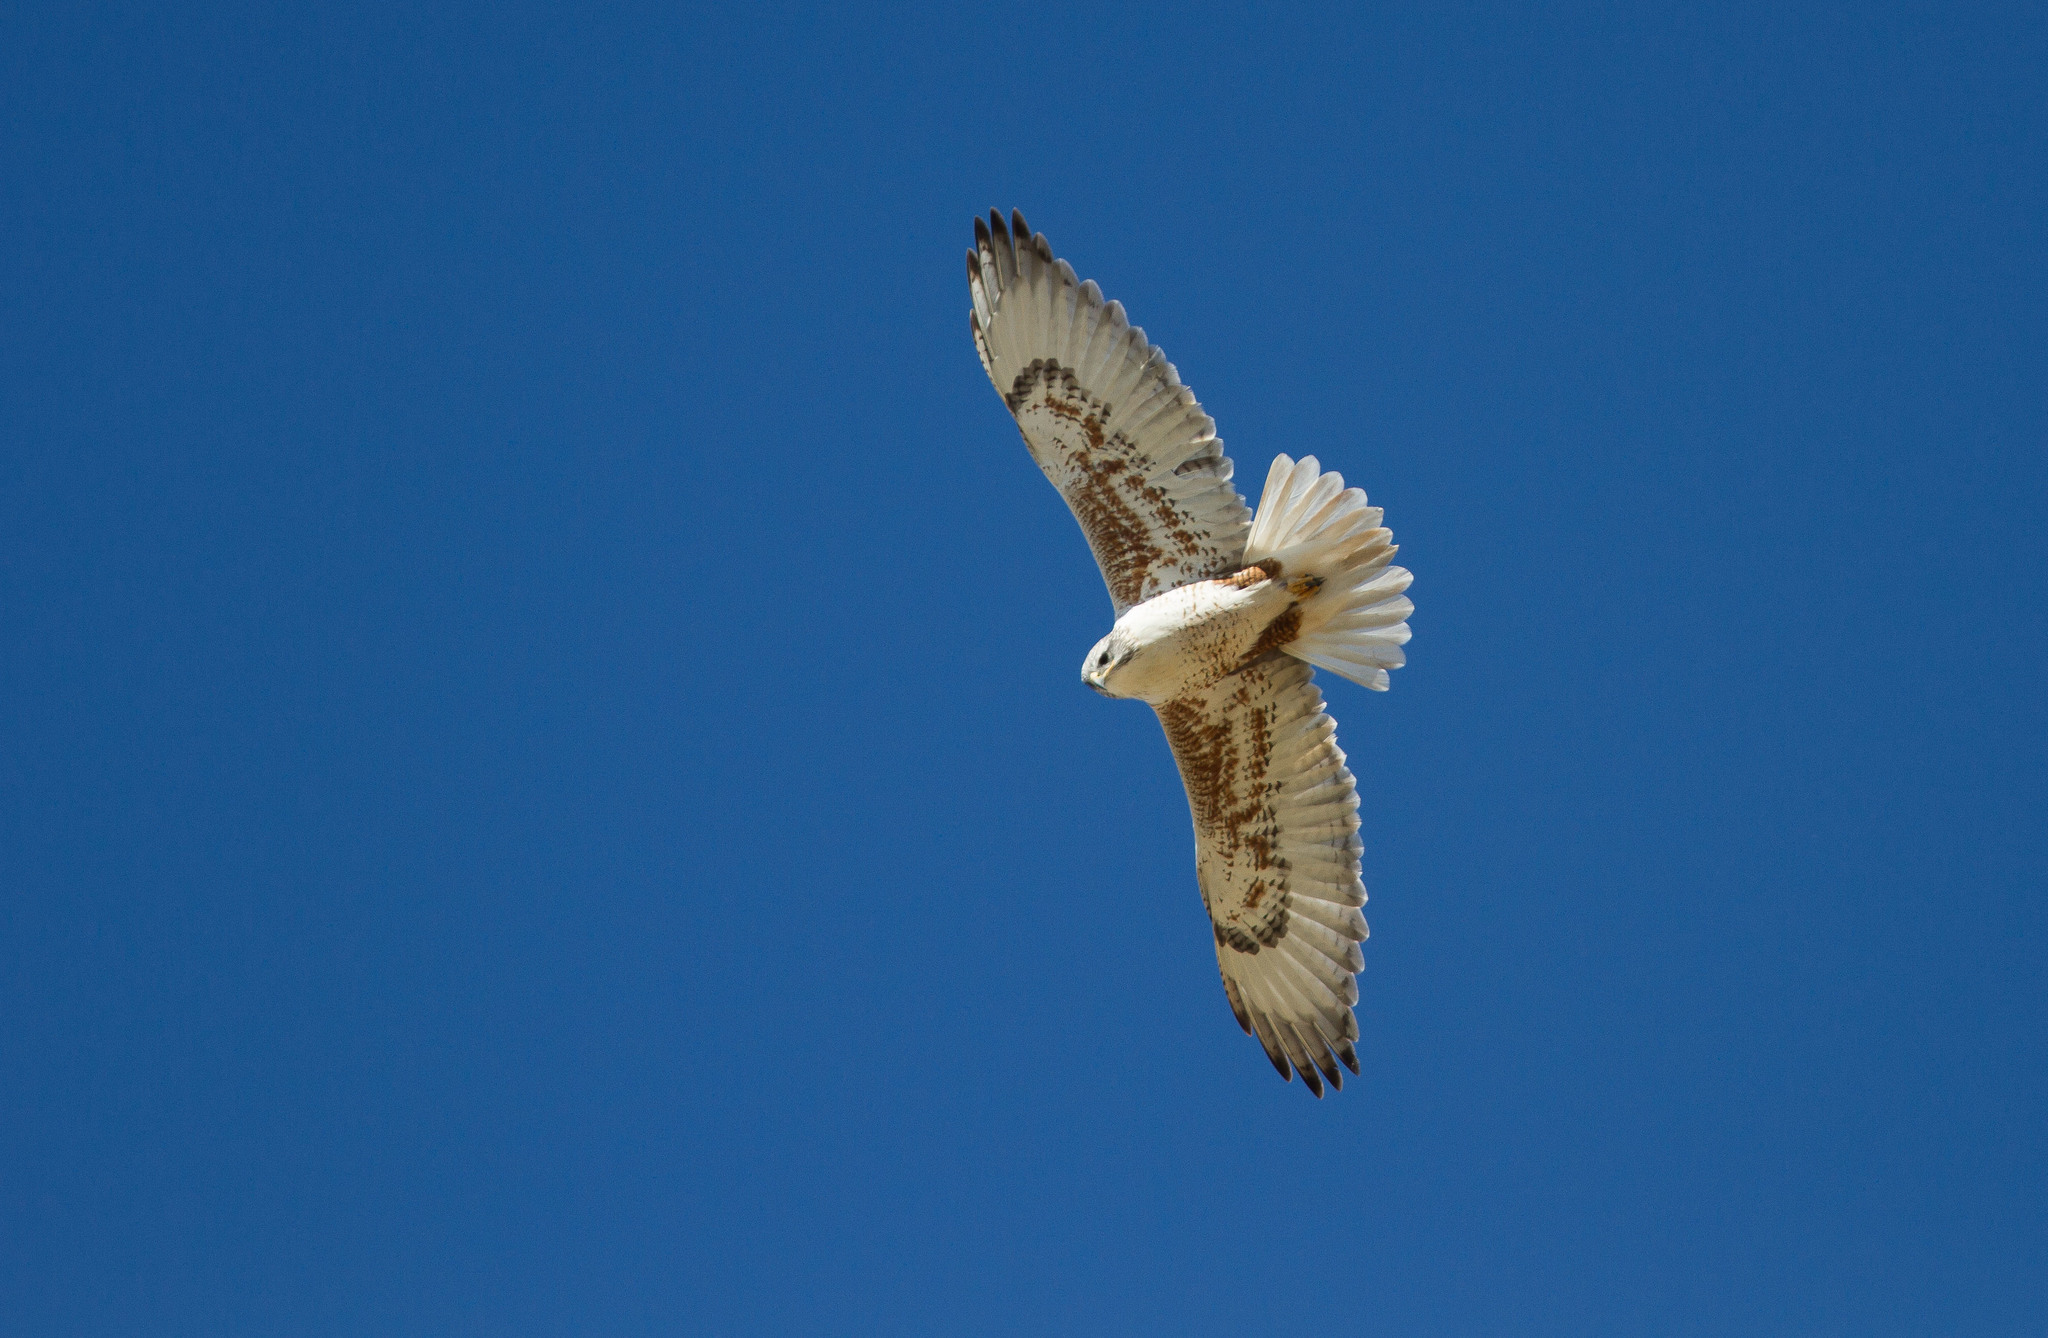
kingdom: Animalia
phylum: Chordata
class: Aves
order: Accipitriformes
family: Accipitridae
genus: Buteo
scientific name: Buteo regalis
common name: Ferruginous hawk
